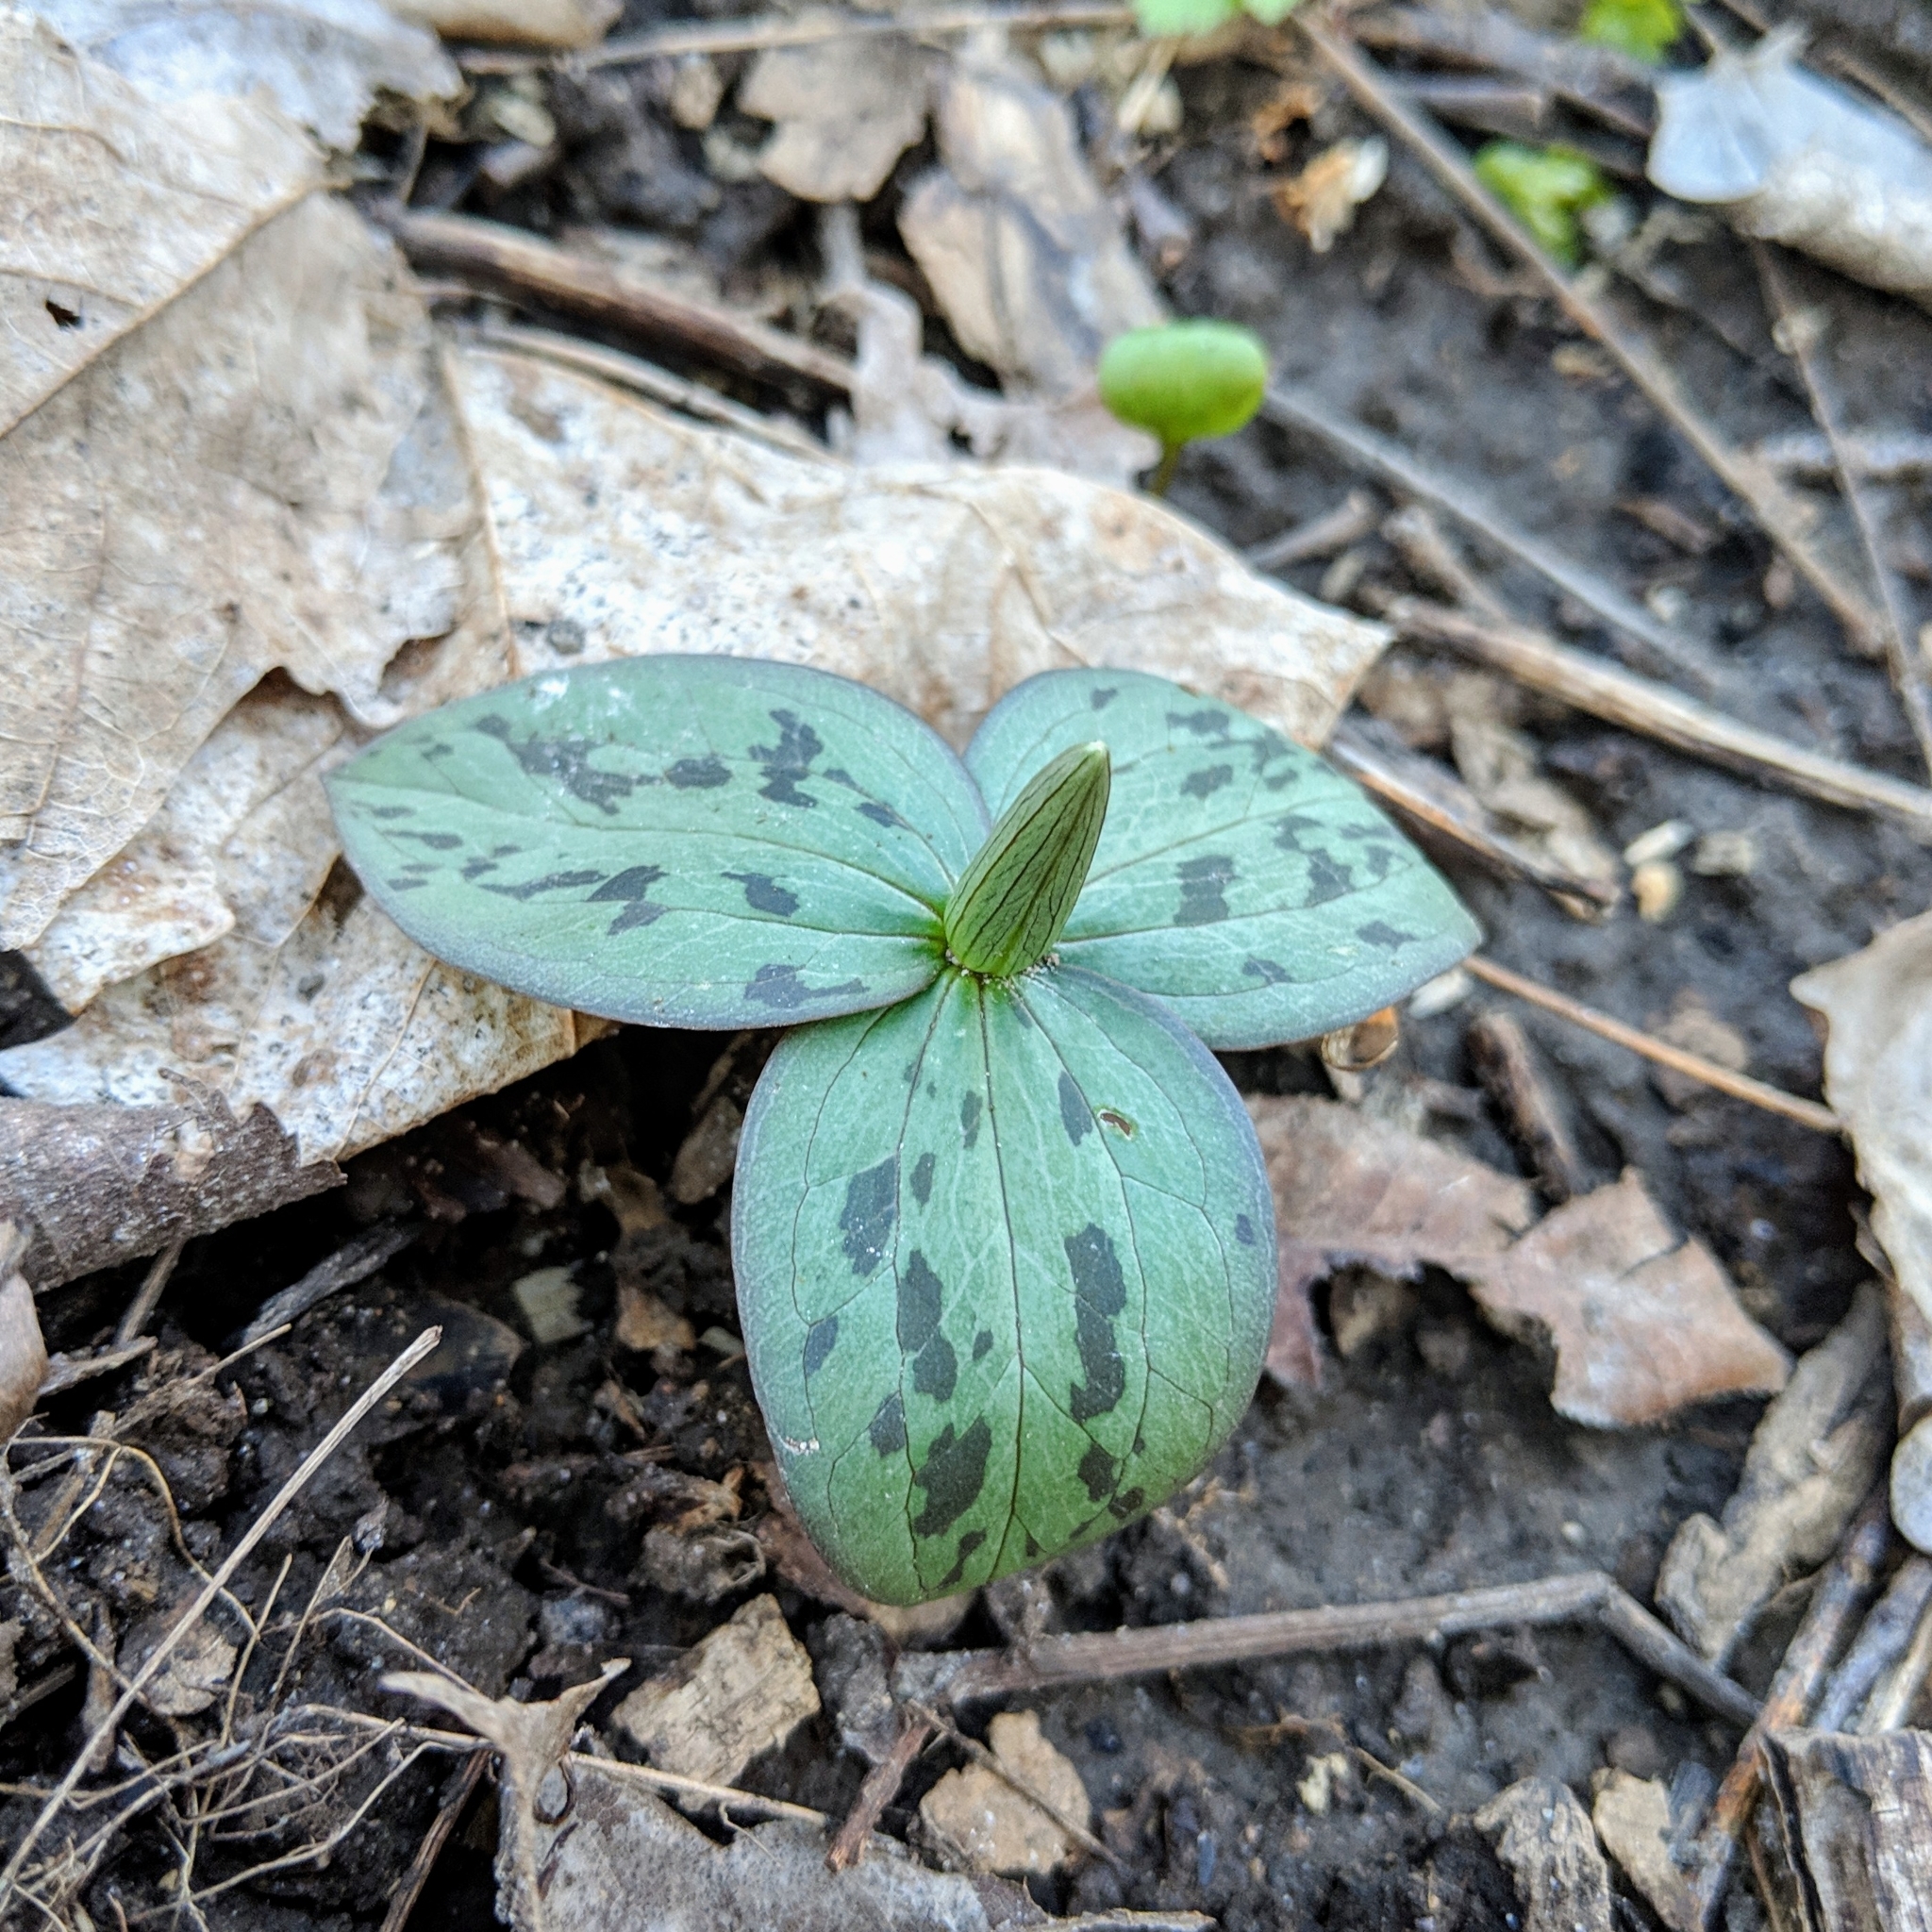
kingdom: Plantae
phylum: Tracheophyta
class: Liliopsida
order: Liliales
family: Melanthiaceae
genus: Trillium
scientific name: Trillium sessile
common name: Sessile trillium
